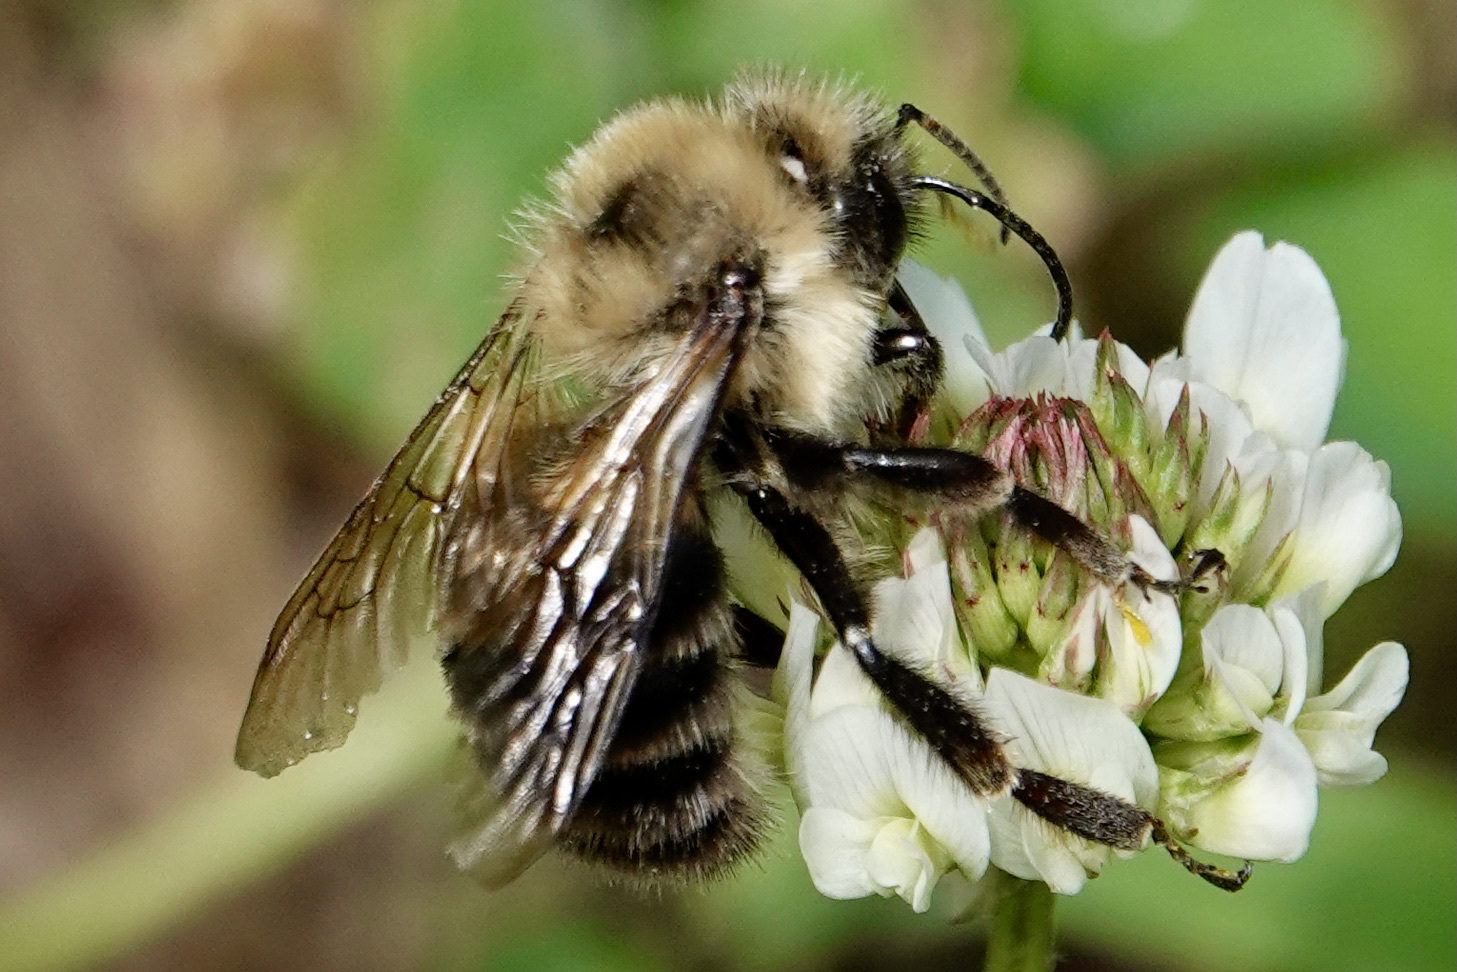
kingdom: Animalia
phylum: Arthropoda
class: Insecta
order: Hymenoptera
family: Apidae
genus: Bombus
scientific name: Bombus bimaculatus
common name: Two-spotted bumble bee
